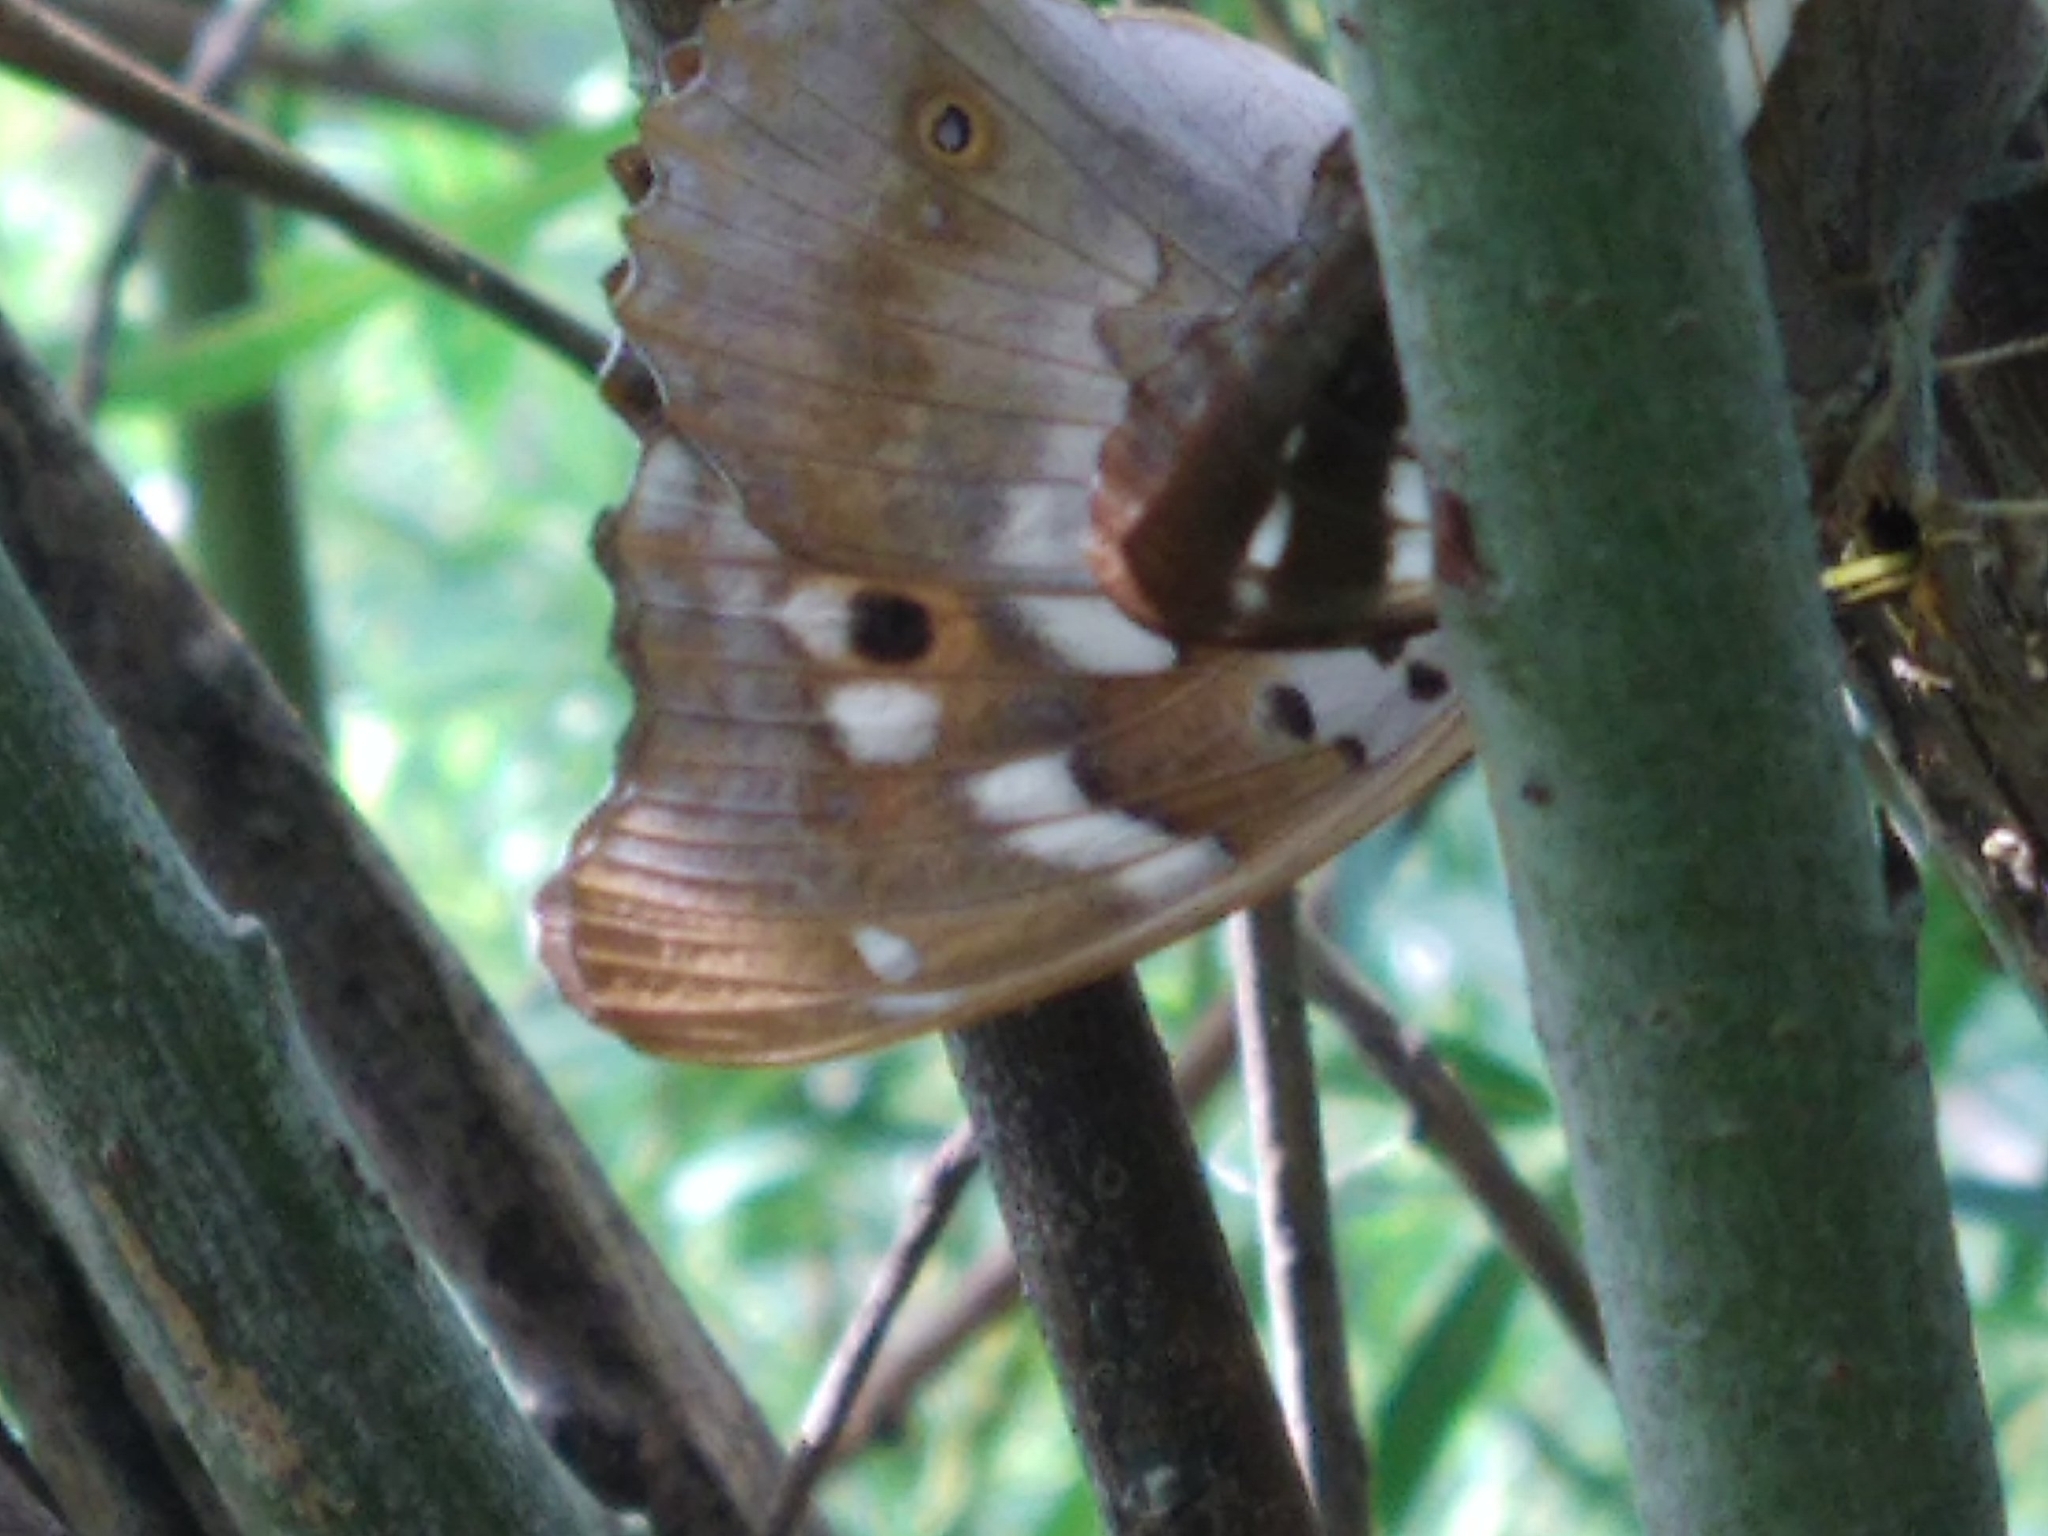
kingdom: Animalia
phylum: Arthropoda
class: Insecta
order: Lepidoptera
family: Nymphalidae
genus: Apatura
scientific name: Apatura ilia
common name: Lesser purple emperor
